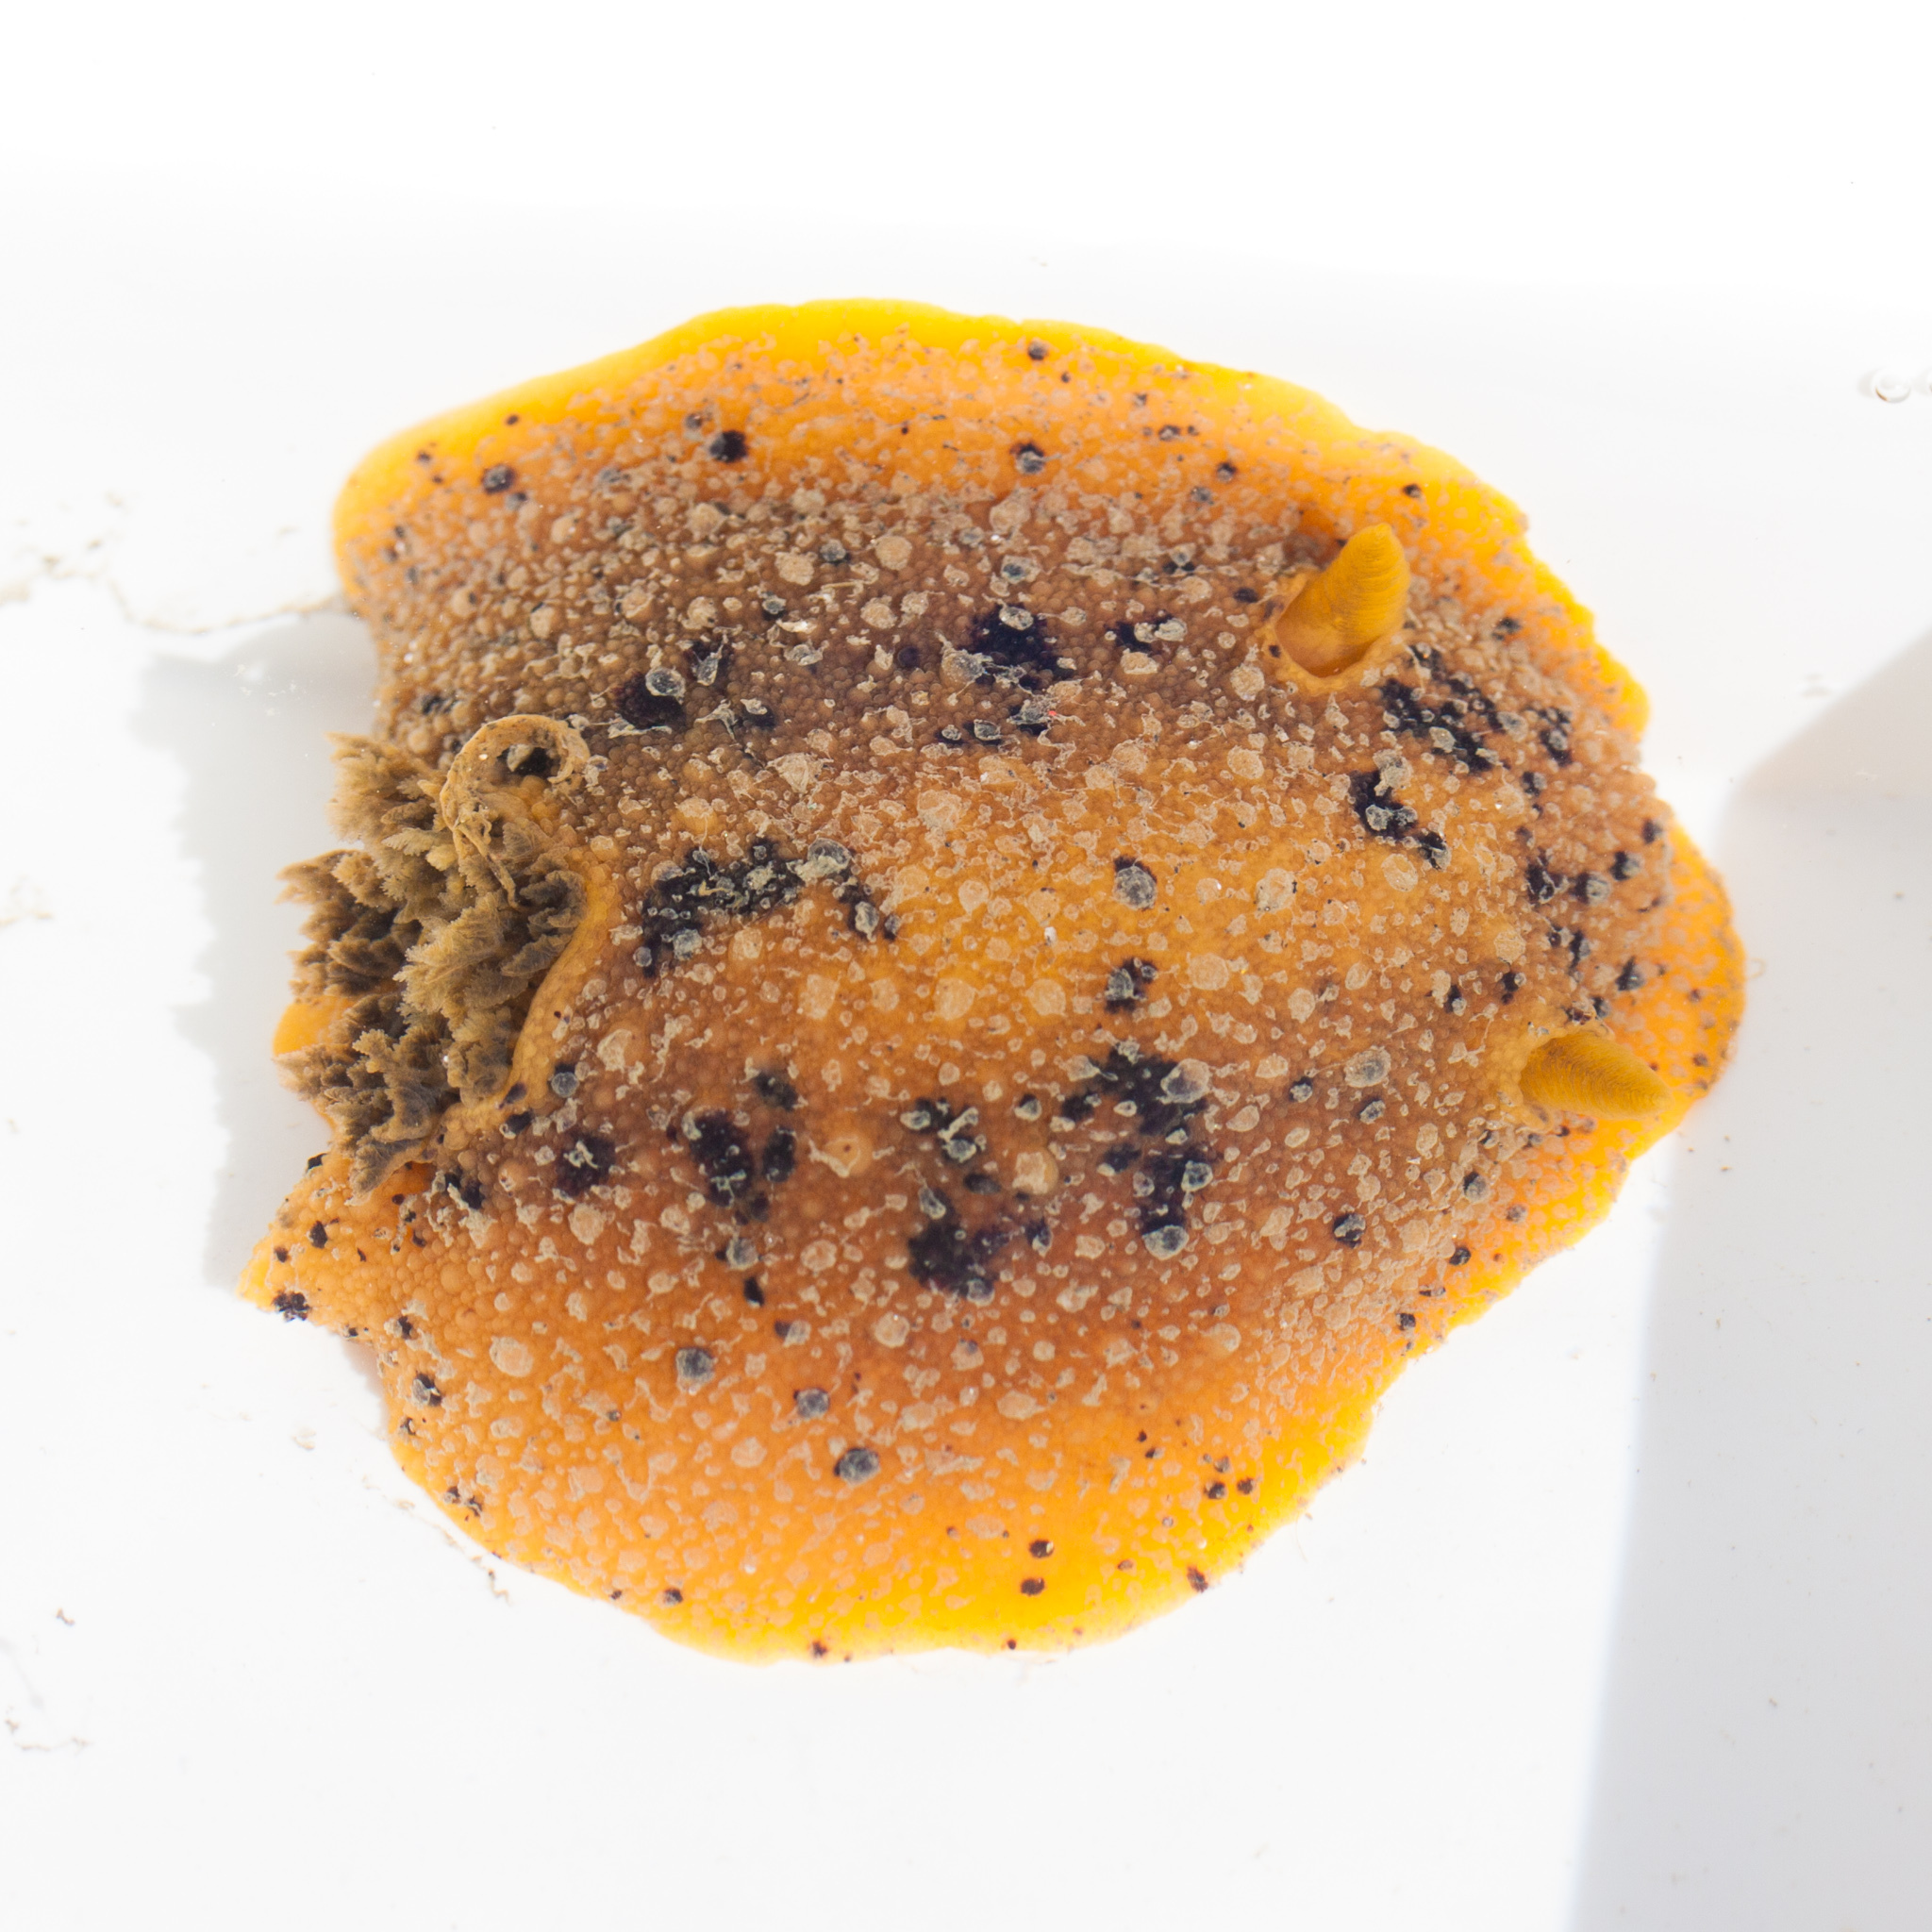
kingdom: Animalia
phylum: Mollusca
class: Gastropoda
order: Nudibranchia
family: Dorididae
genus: Doris
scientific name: Doris montereyensis
